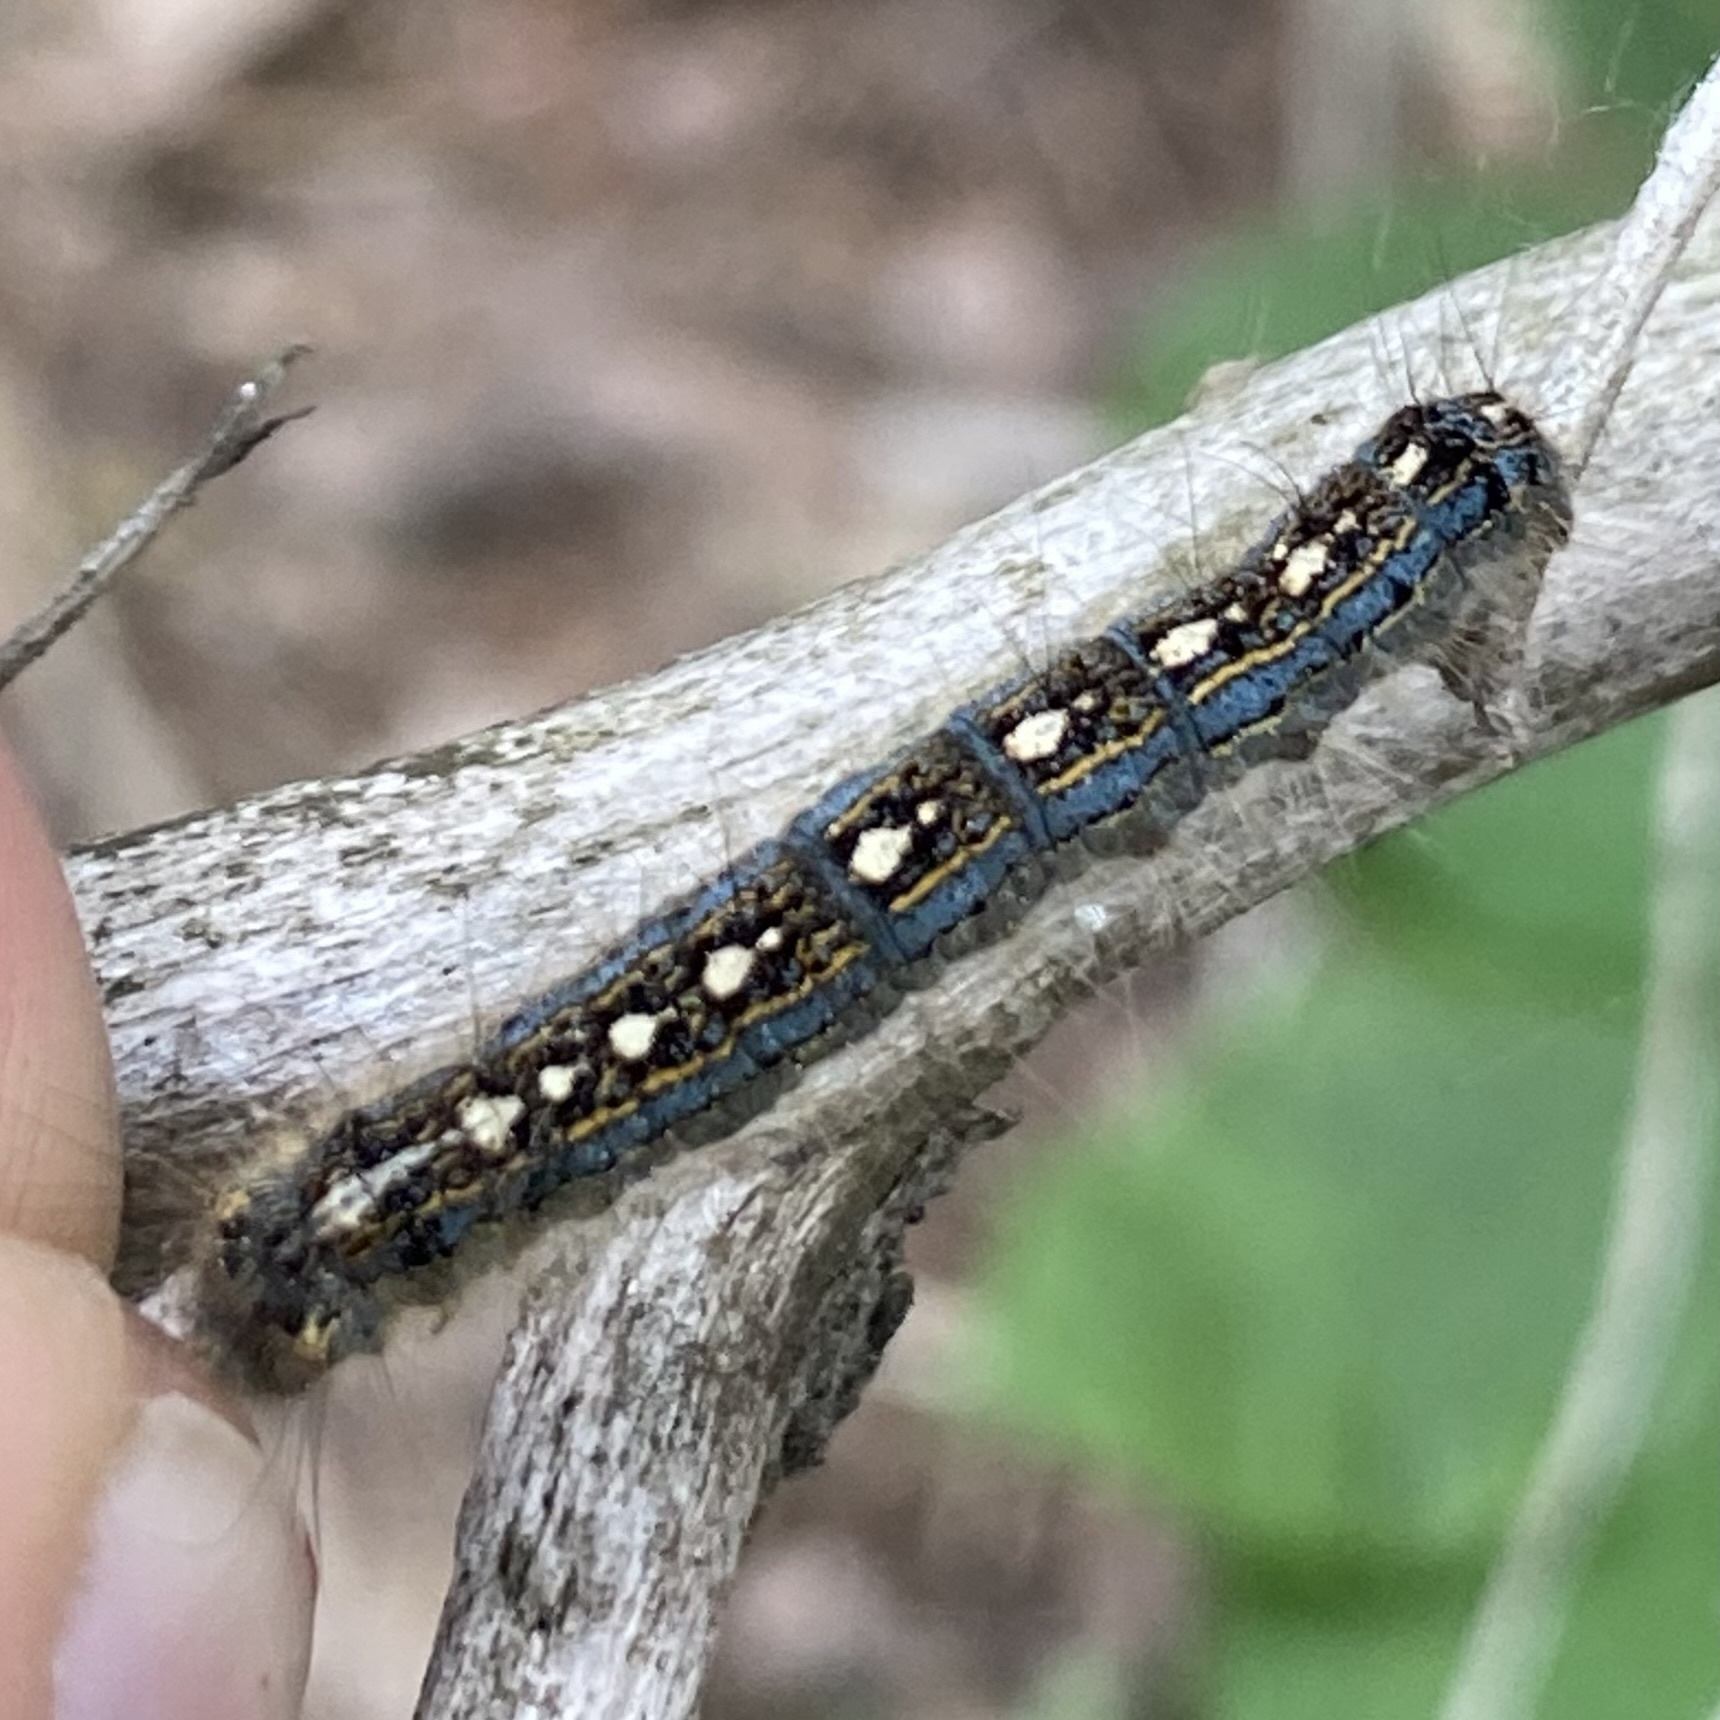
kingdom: Animalia
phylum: Arthropoda
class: Insecta
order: Lepidoptera
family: Lasiocampidae
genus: Malacosoma
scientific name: Malacosoma disstria
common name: Forest tent caterpillar
